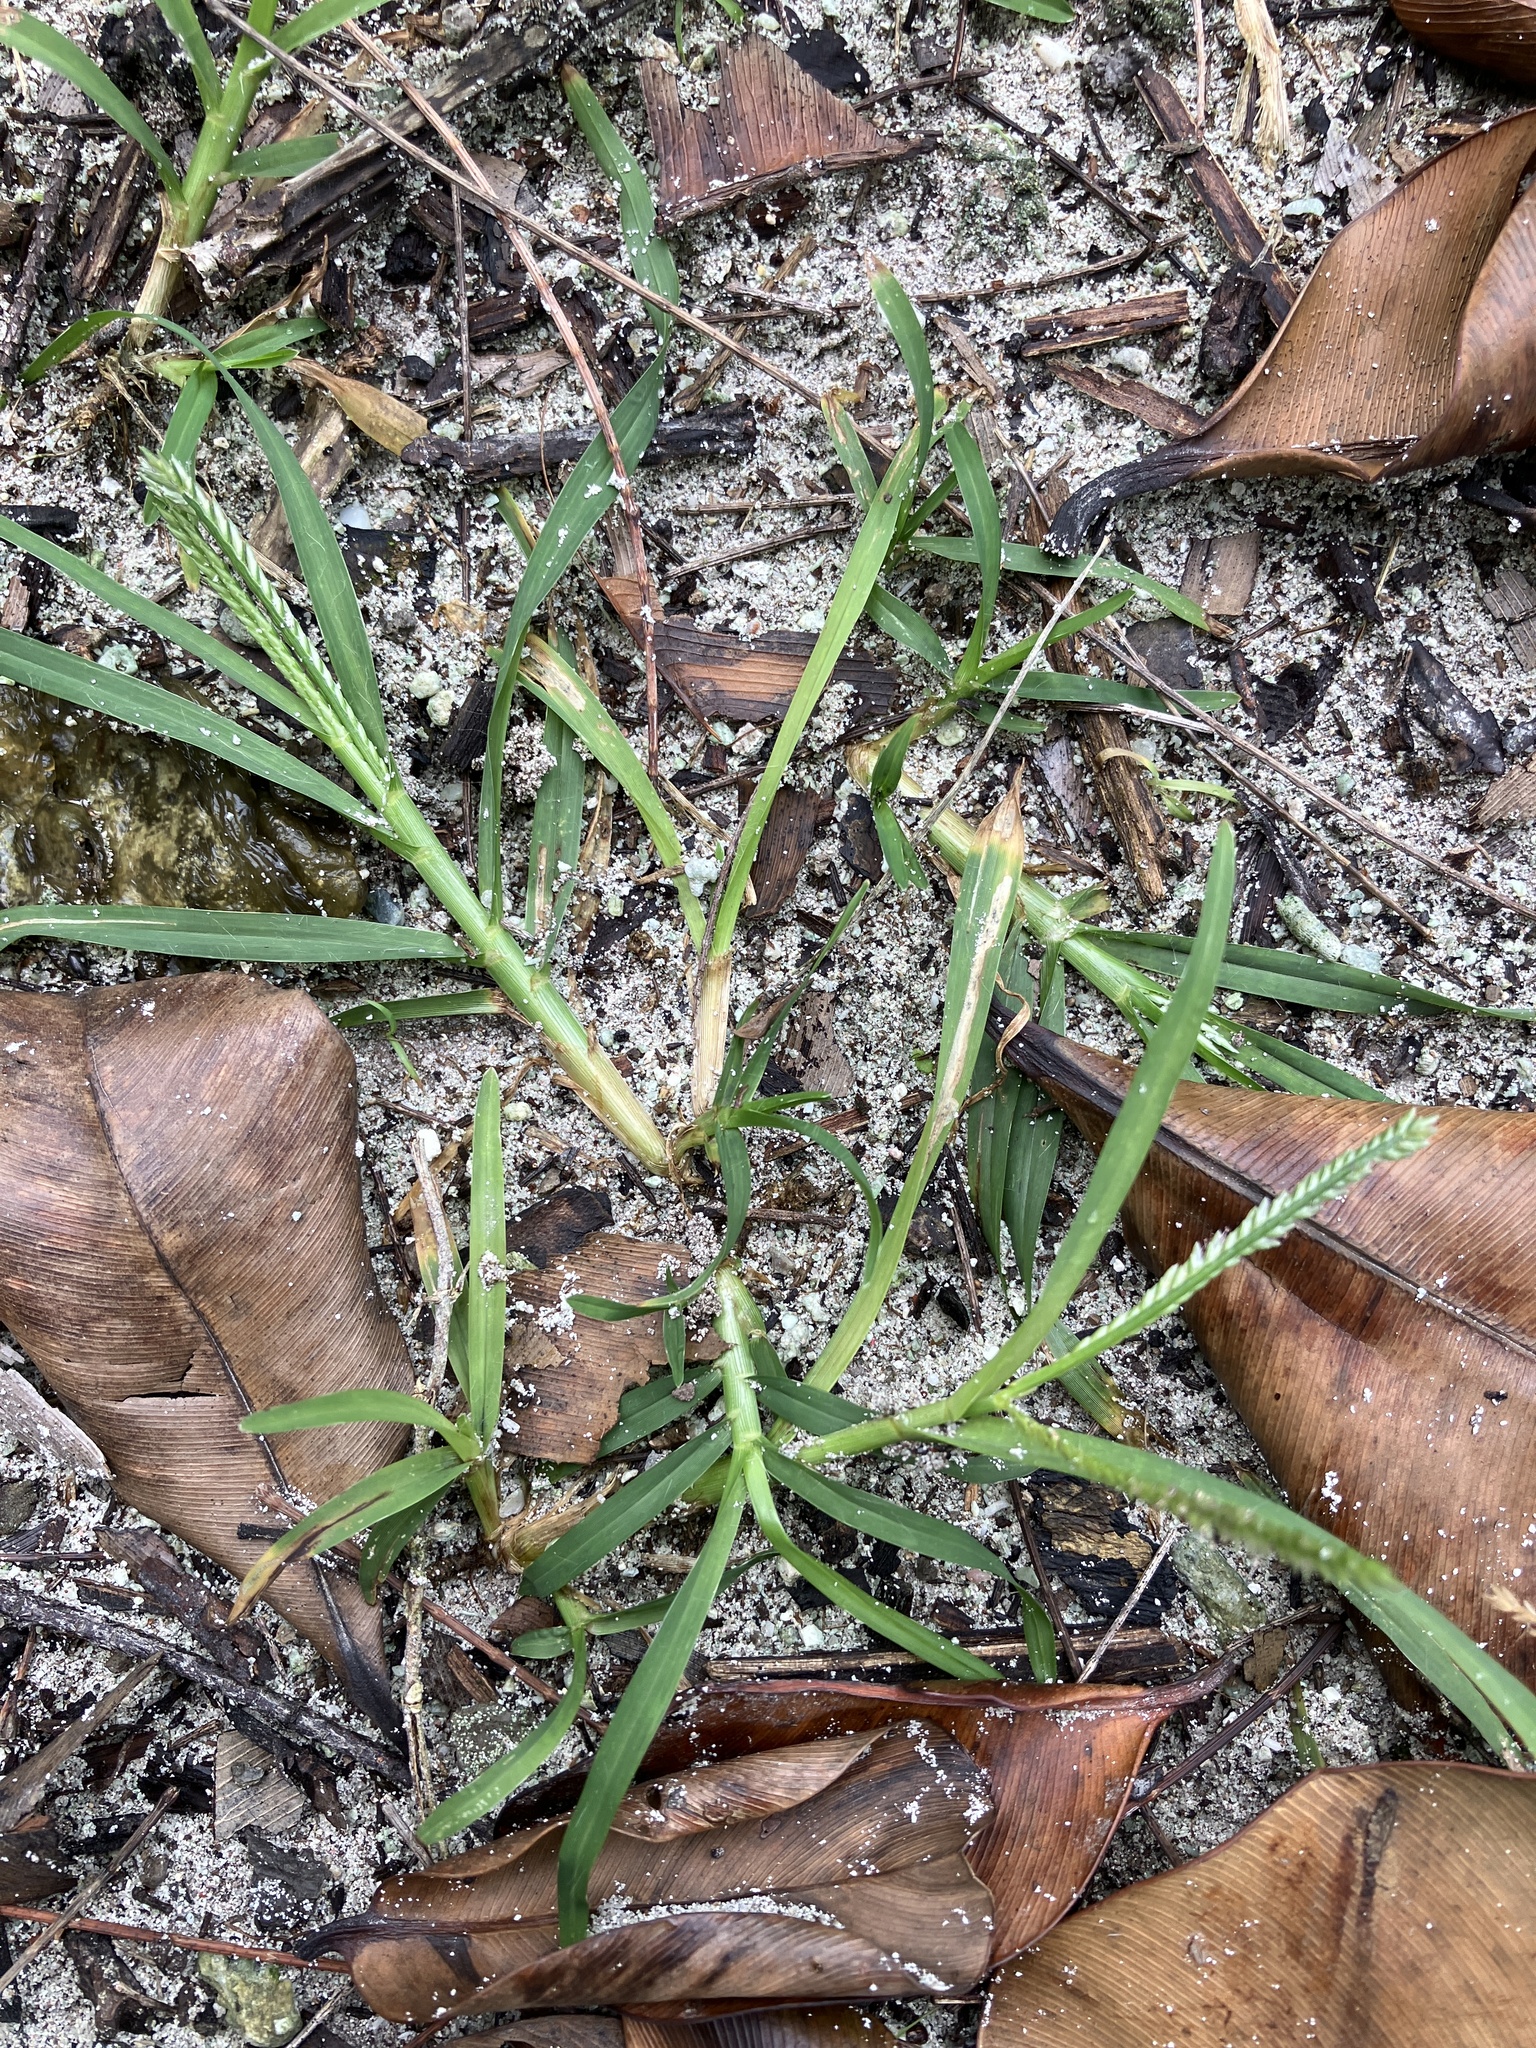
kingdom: Plantae
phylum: Tracheophyta
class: Liliopsida
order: Poales
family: Poaceae
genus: Eleusine
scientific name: Eleusine indica
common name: Yard-grass
